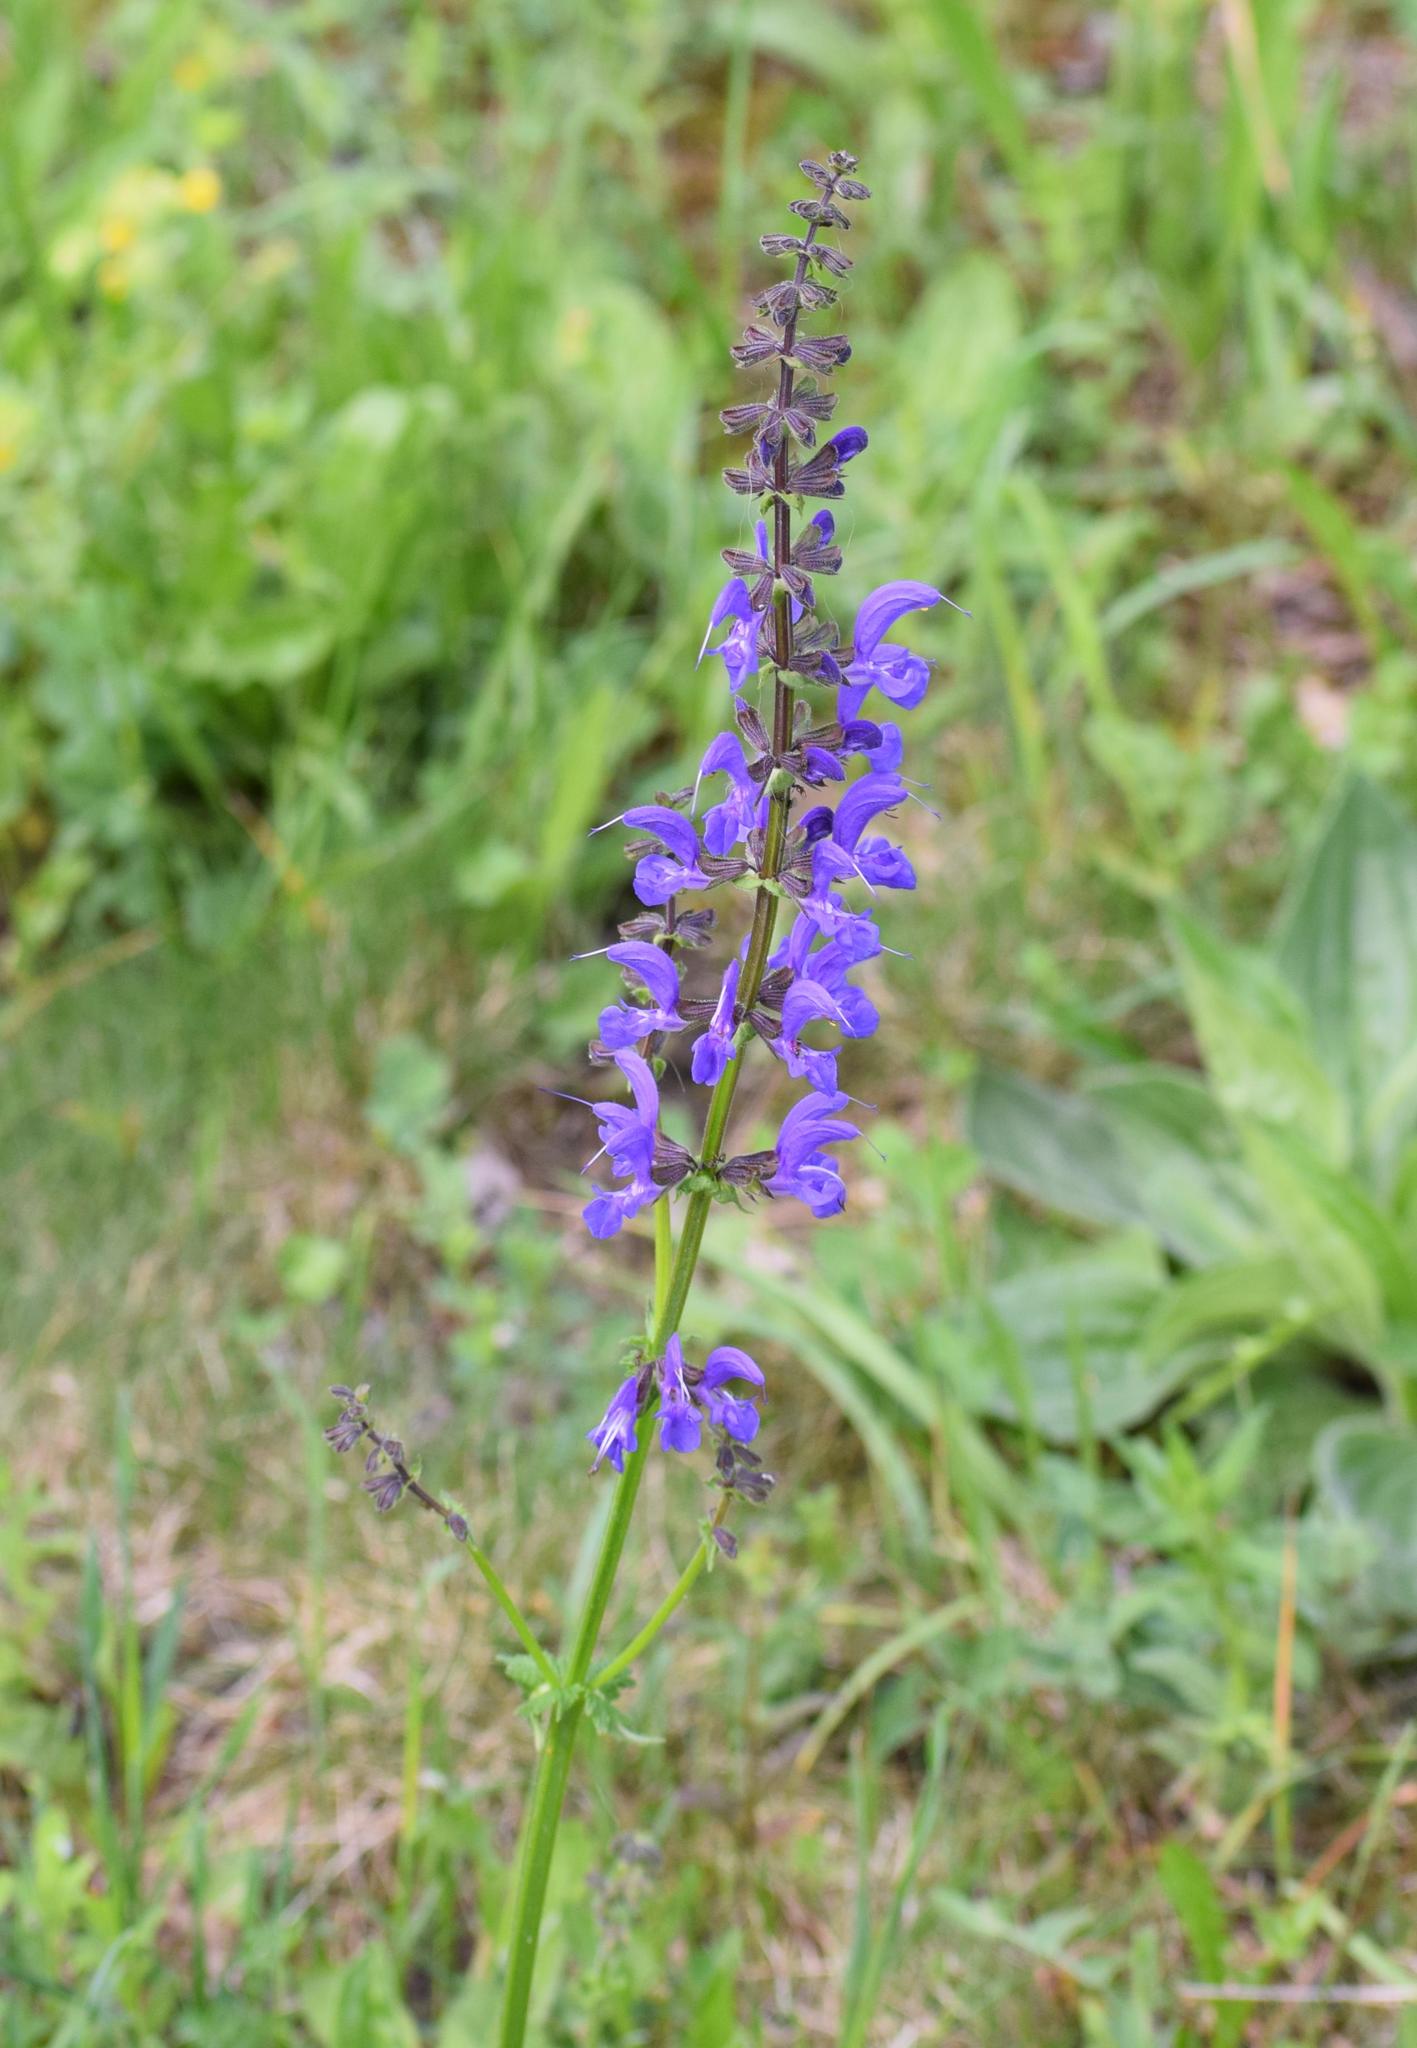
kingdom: Plantae
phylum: Tracheophyta
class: Magnoliopsida
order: Lamiales
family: Lamiaceae
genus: Salvia
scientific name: Salvia pratensis
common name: Meadow sage
